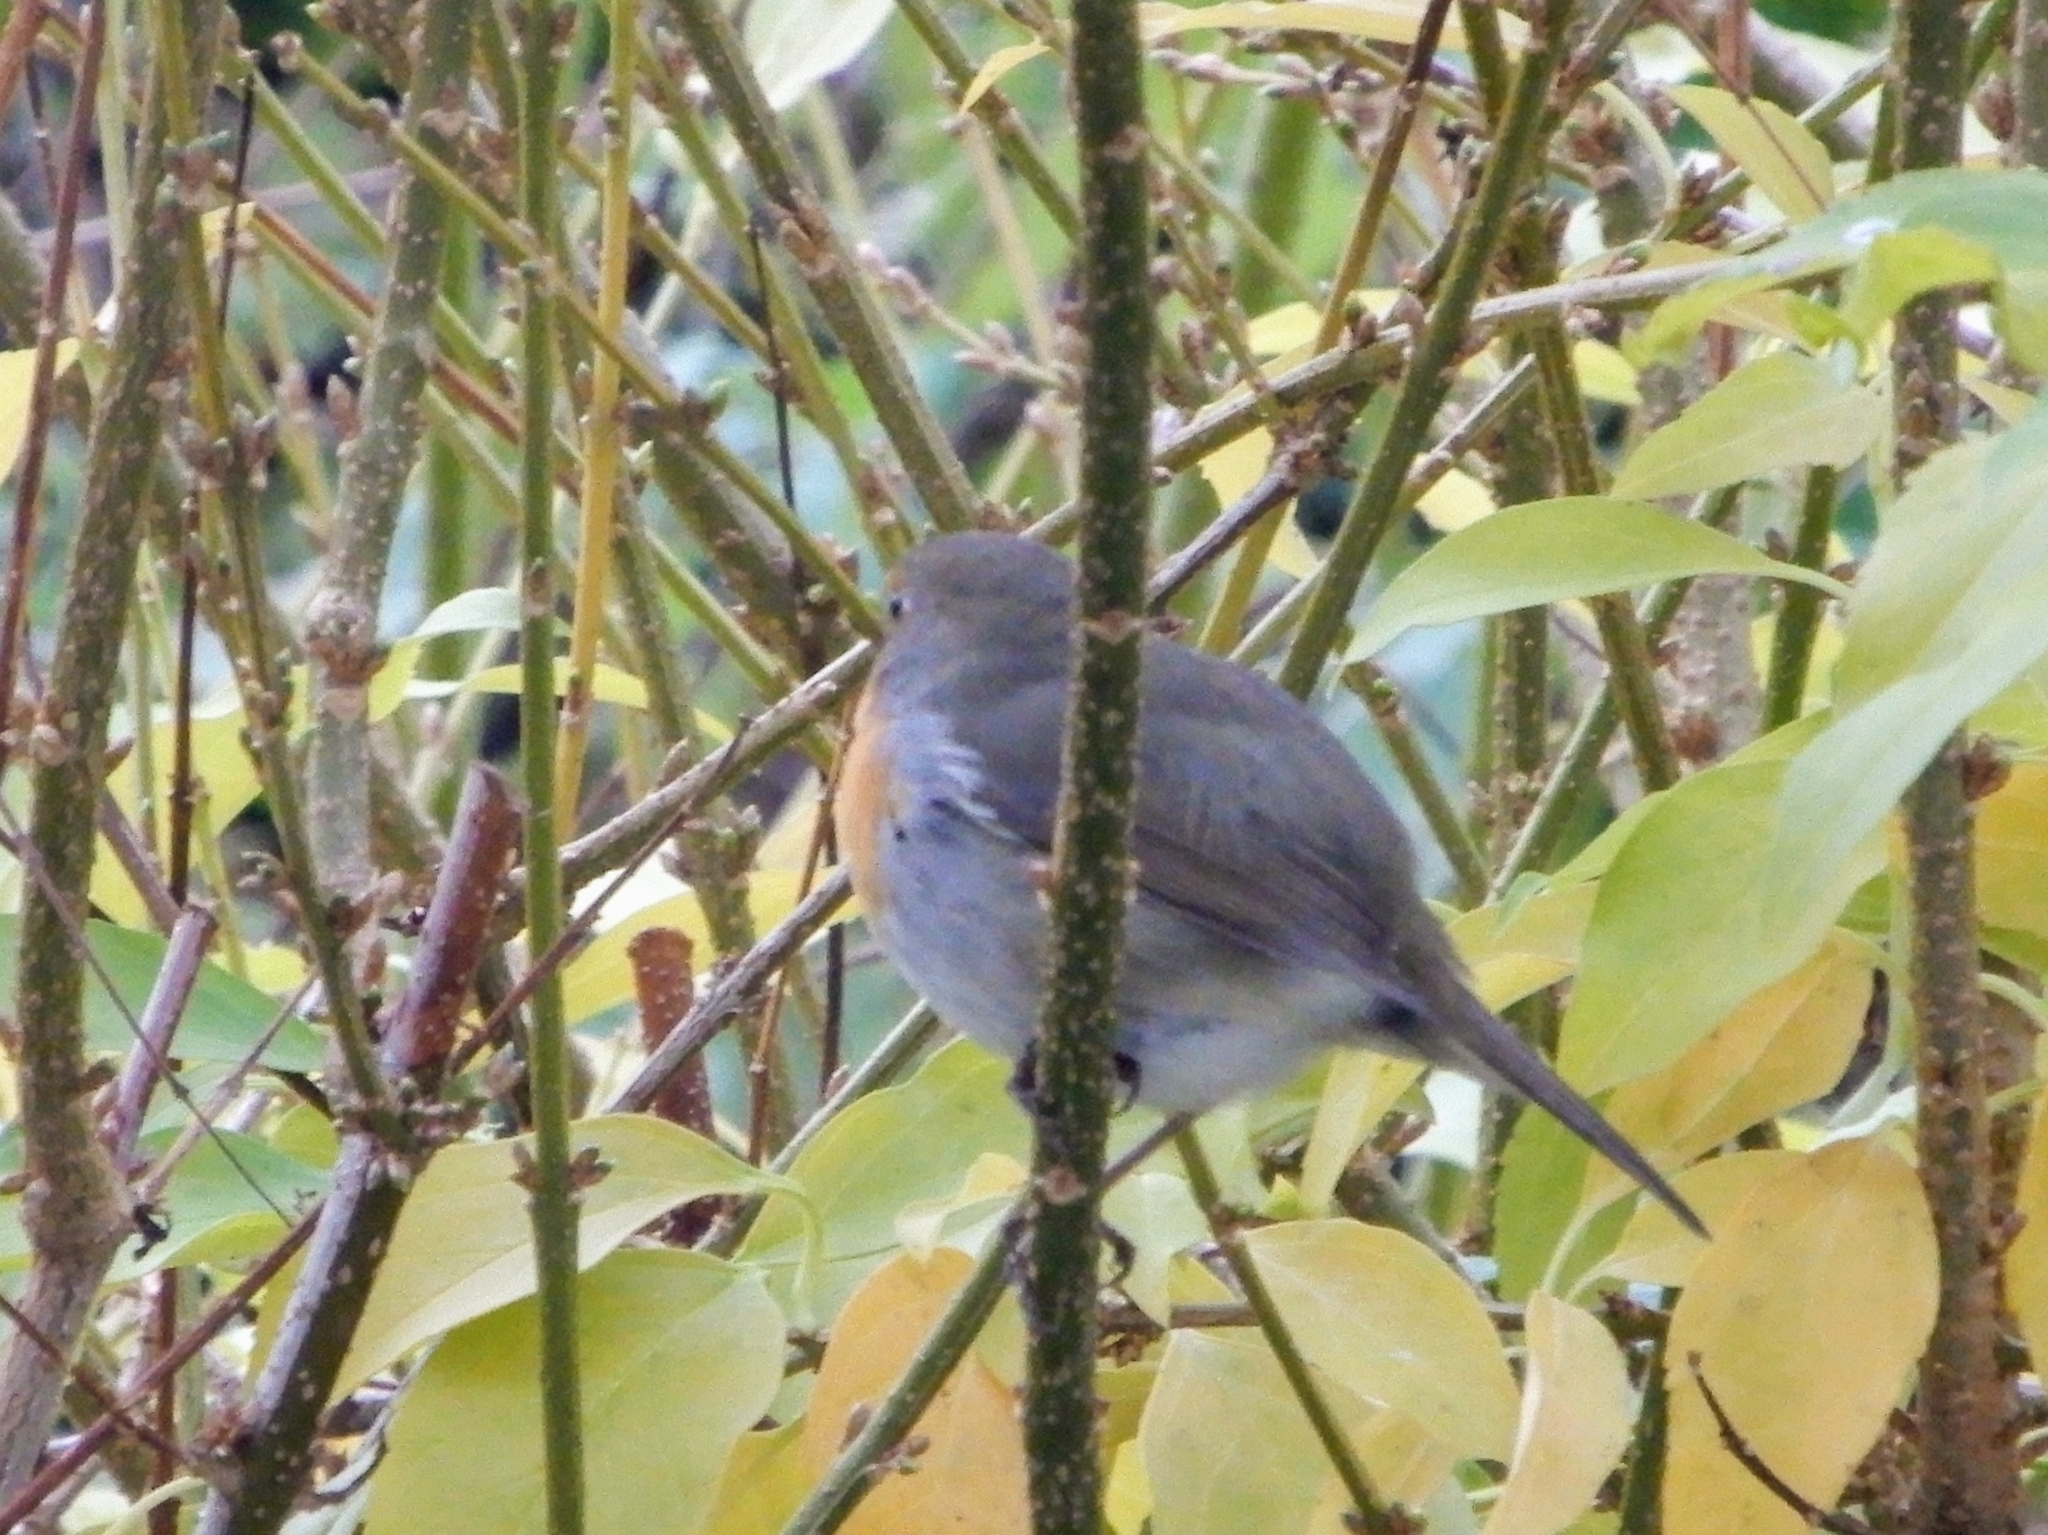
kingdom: Animalia
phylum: Chordata
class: Aves
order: Passeriformes
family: Muscicapidae
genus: Erithacus
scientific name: Erithacus rubecula
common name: European robin
